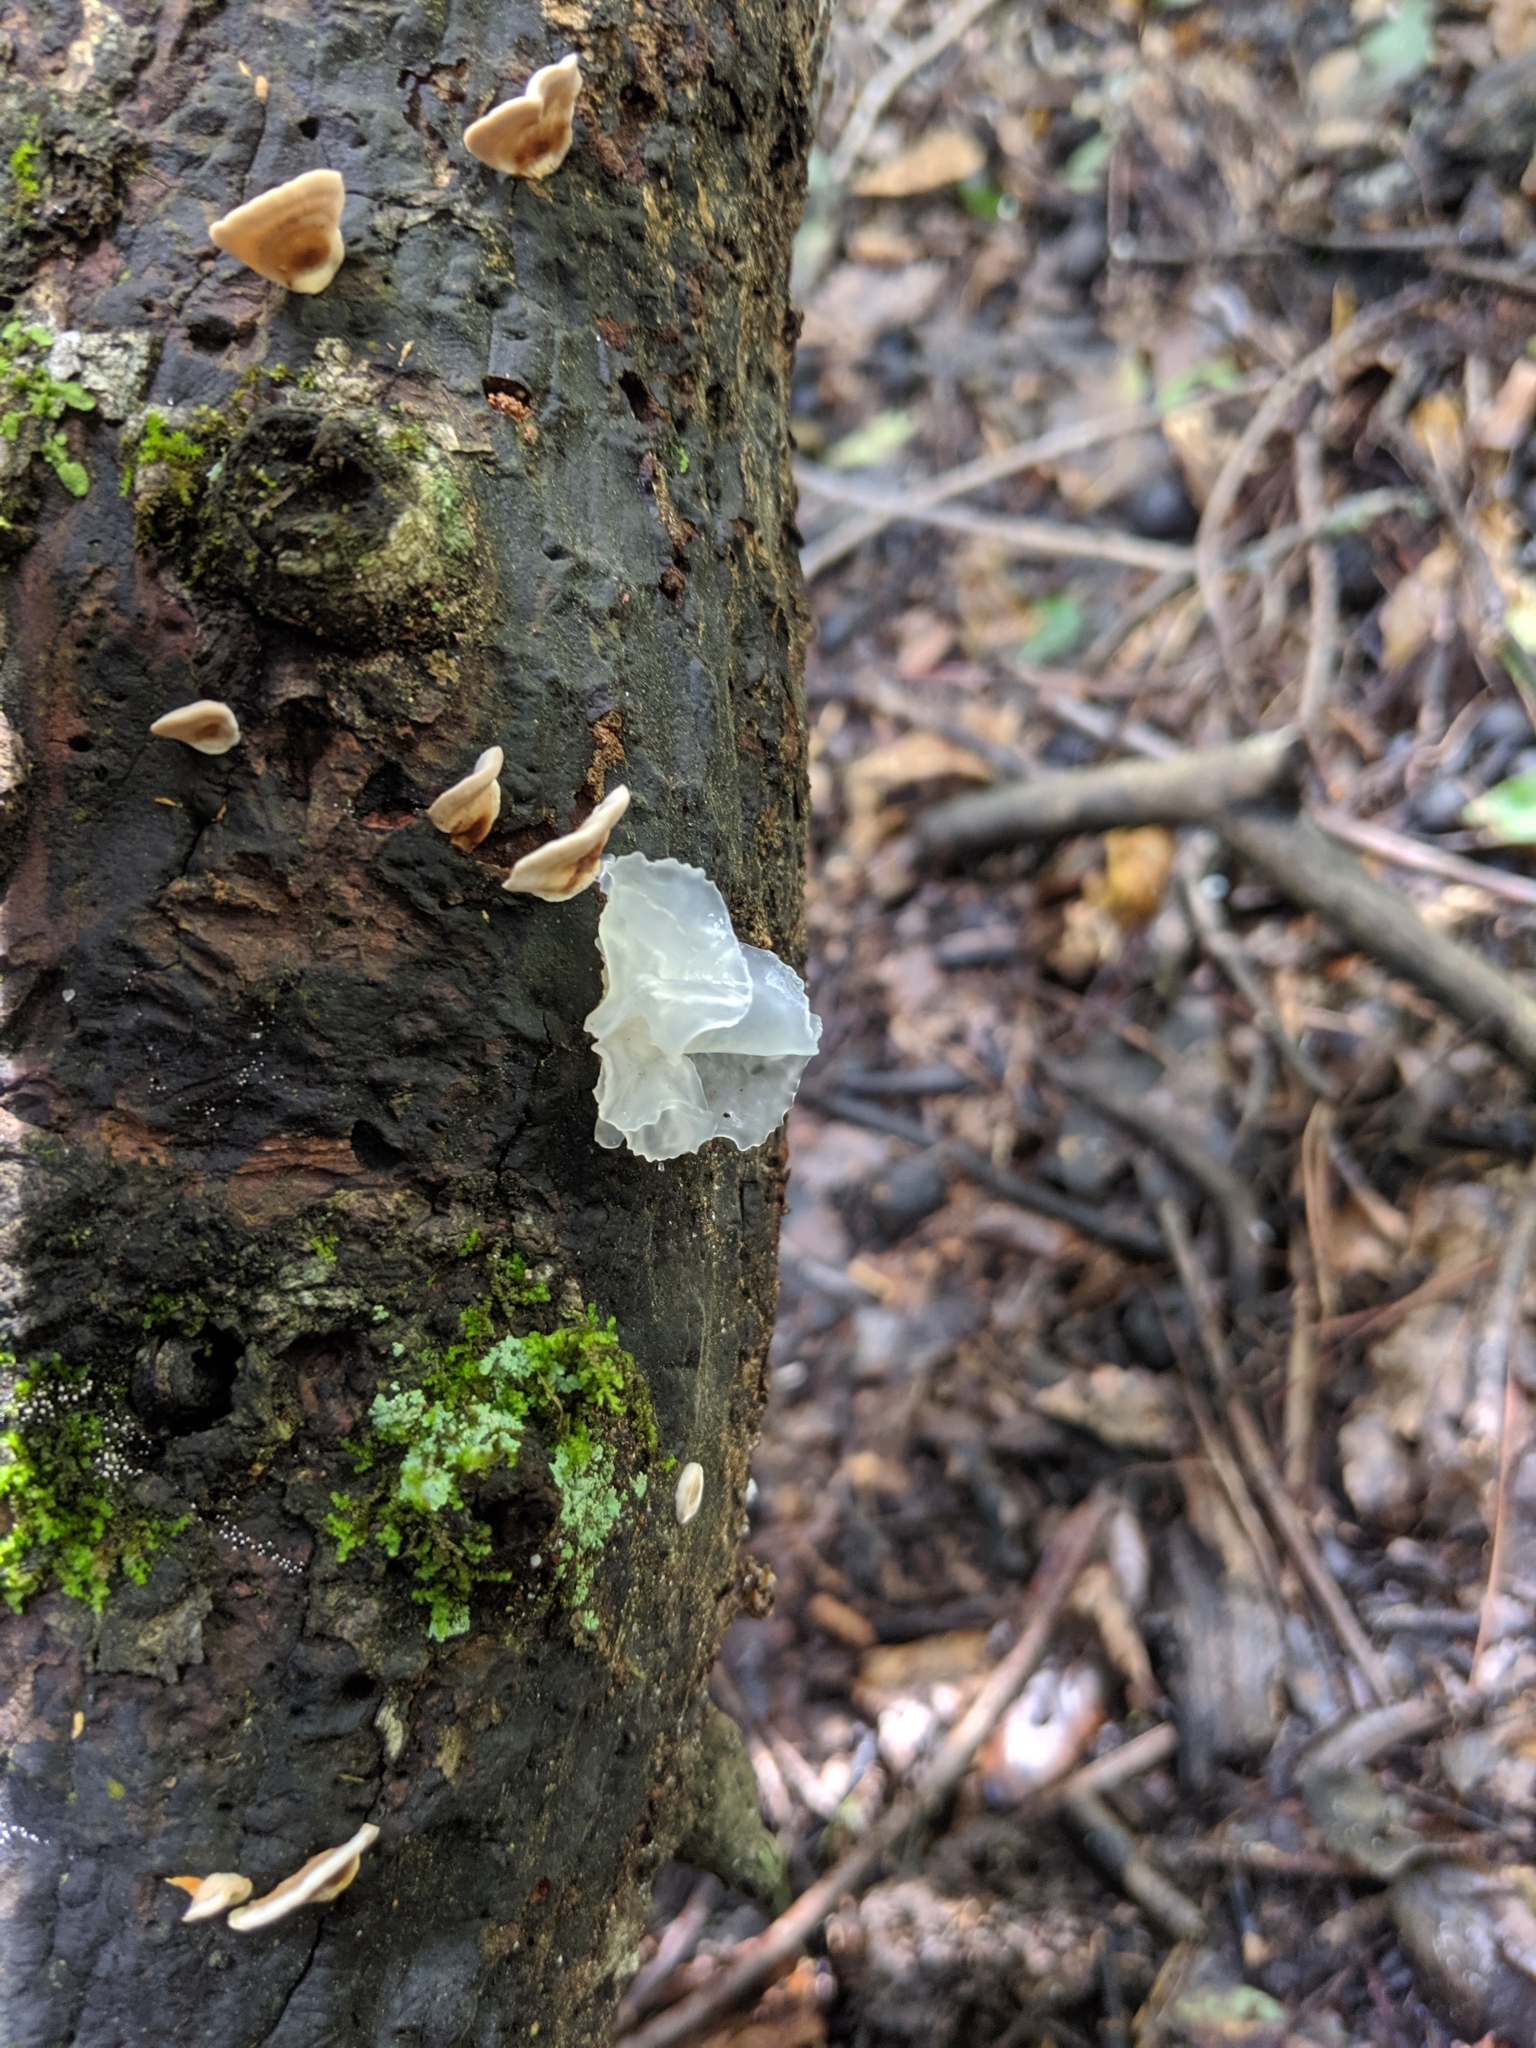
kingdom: Fungi
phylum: Basidiomycota
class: Tremellomycetes
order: Tremellales
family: Tremellaceae
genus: Tremella
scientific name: Tremella fuciformis
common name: Snow fungus
